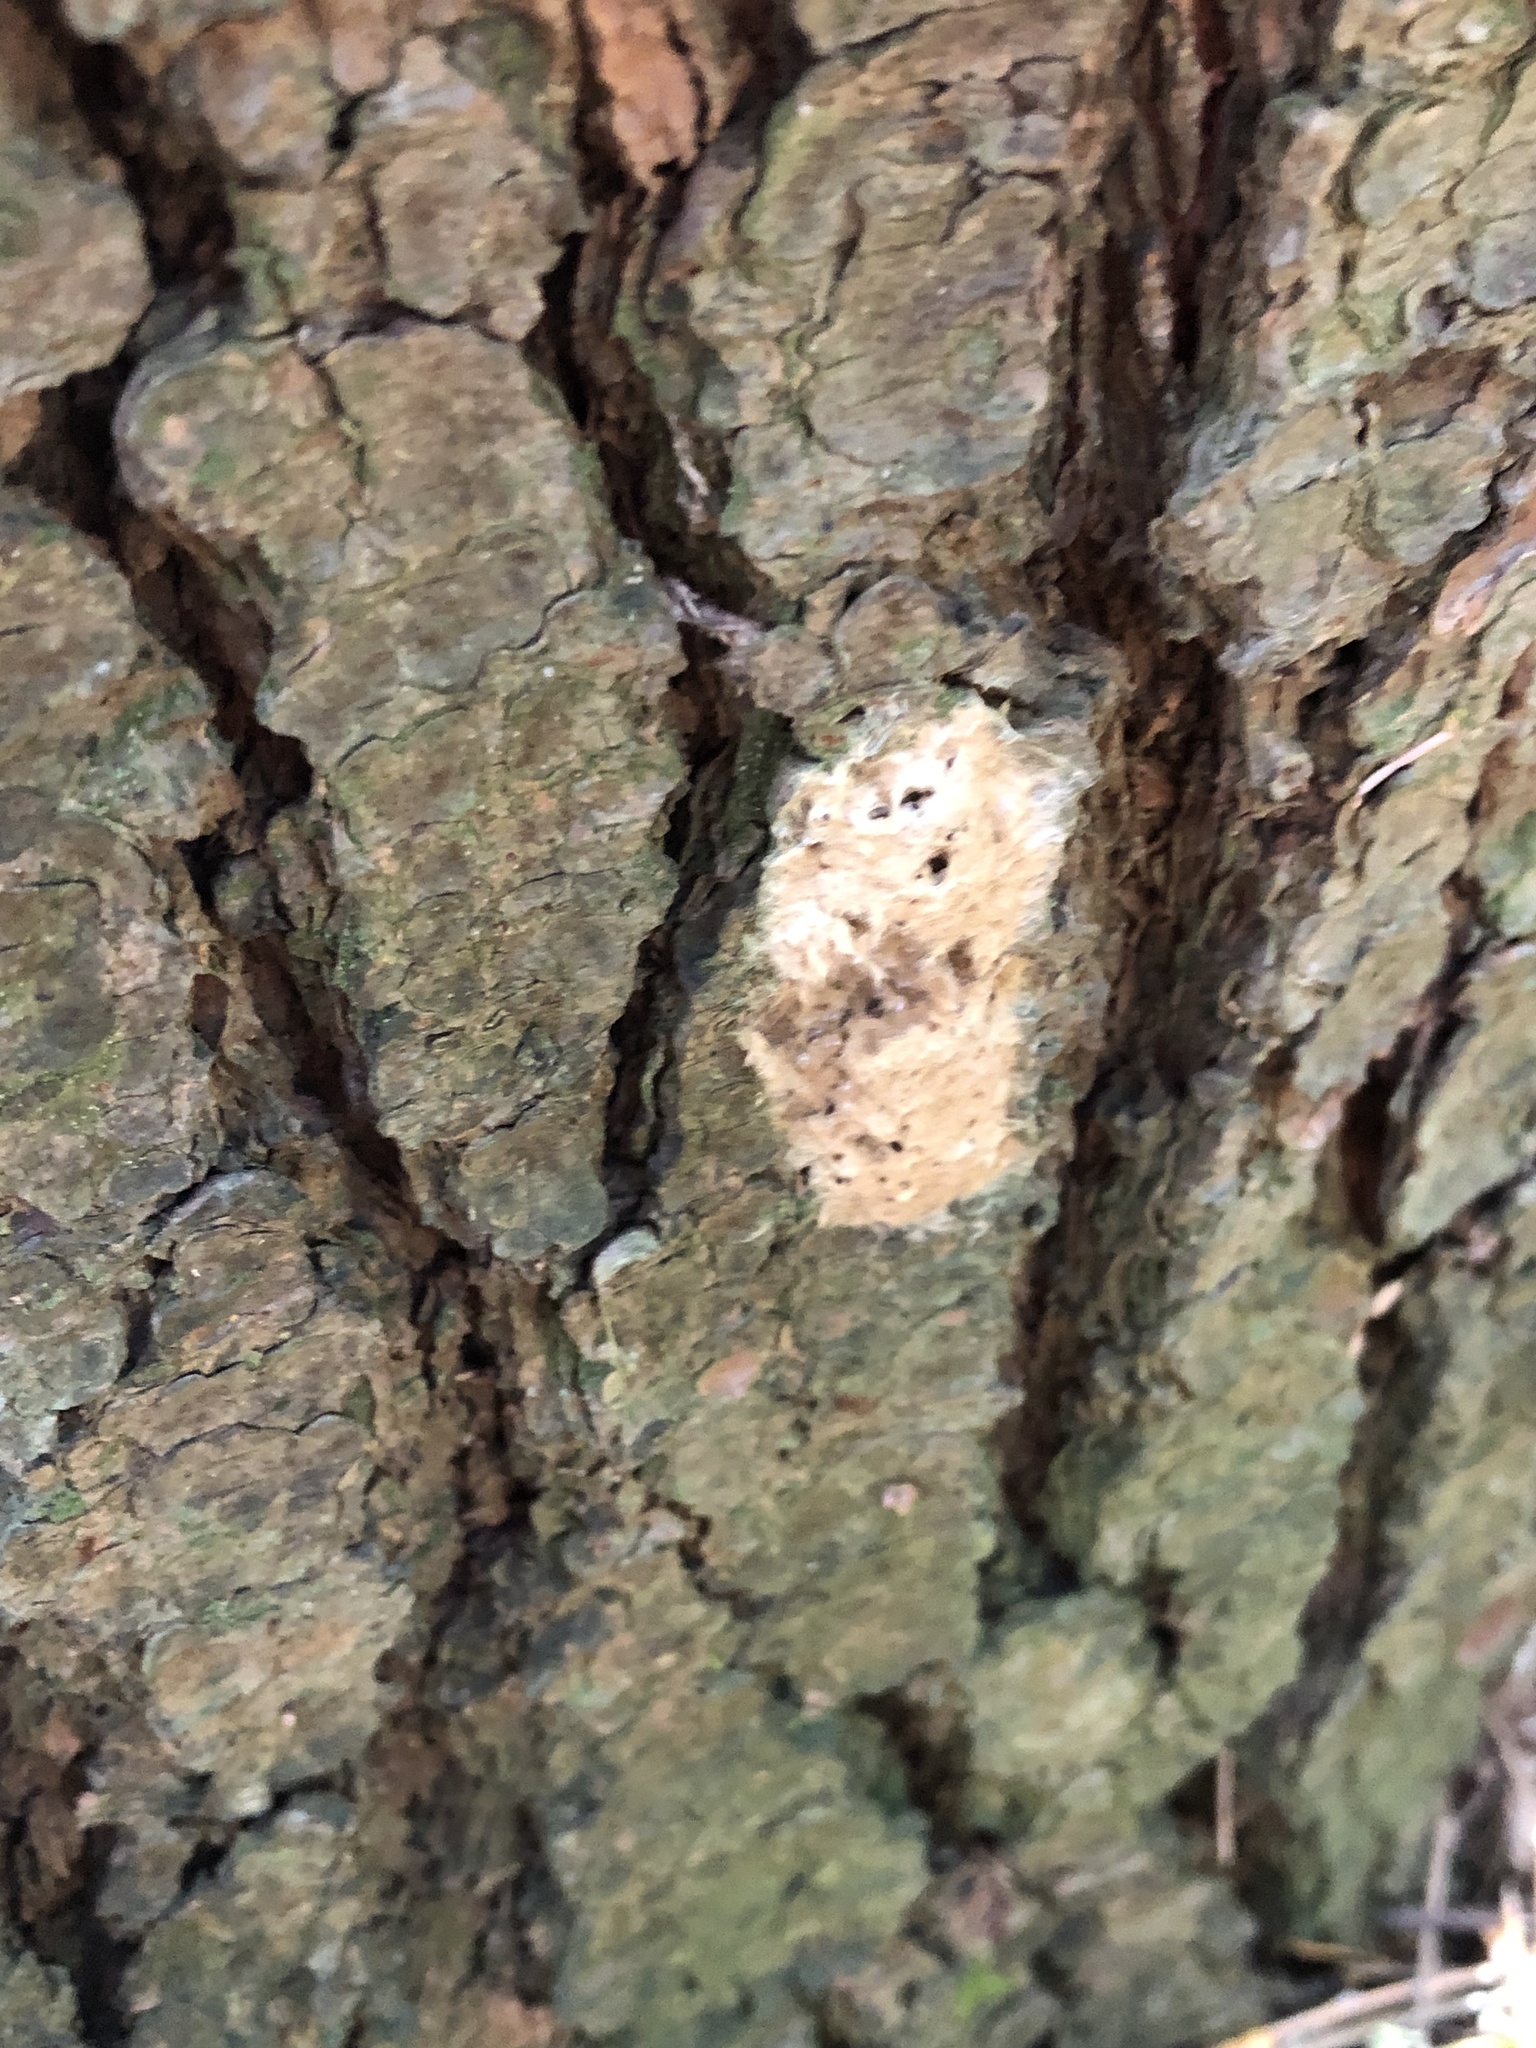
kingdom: Animalia
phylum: Arthropoda
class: Insecta
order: Lepidoptera
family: Erebidae
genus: Lymantria
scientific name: Lymantria dispar
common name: Gypsy moth
